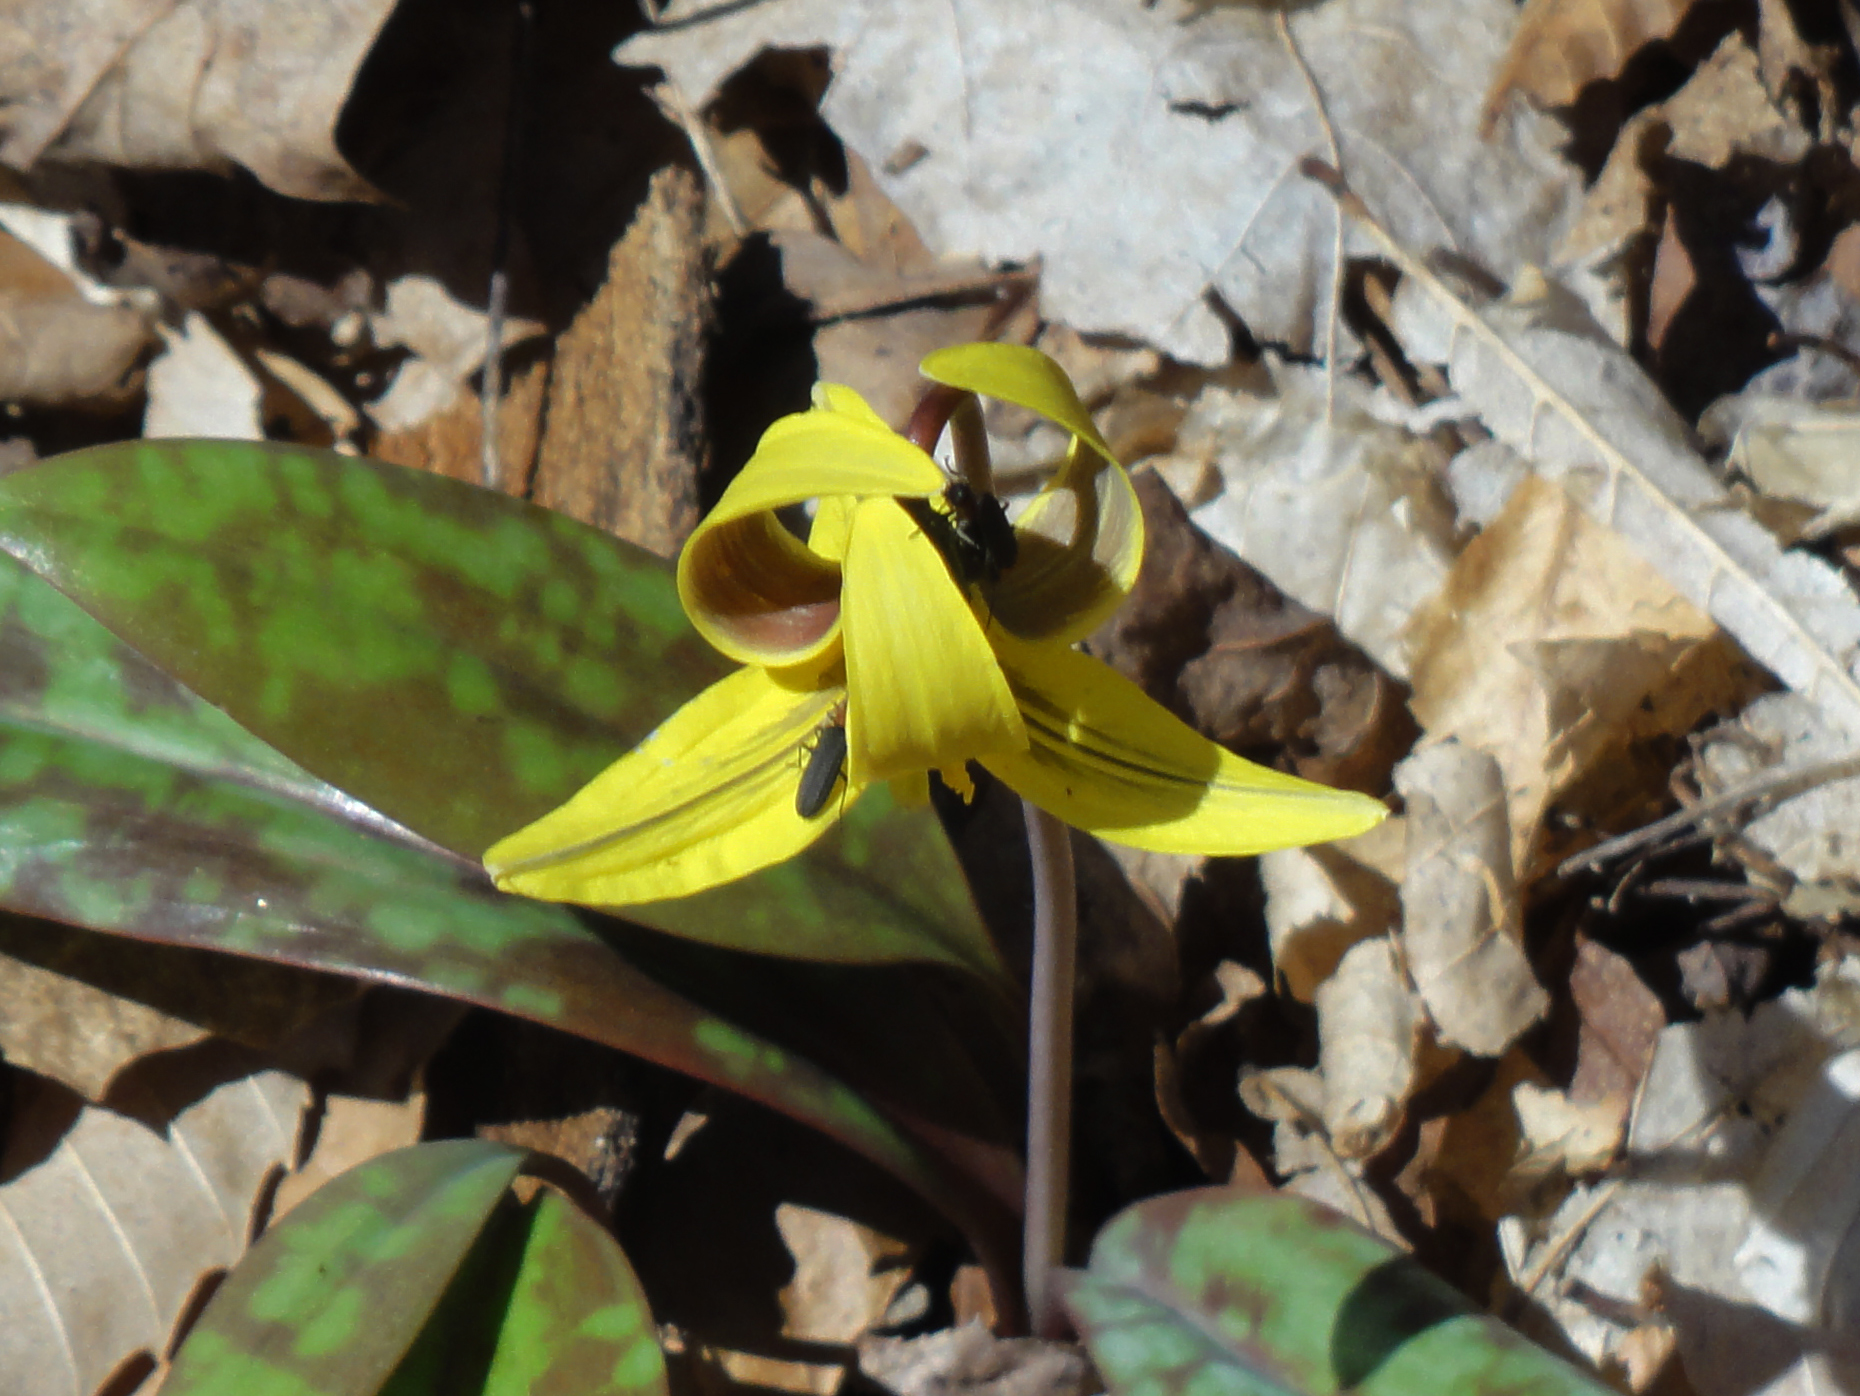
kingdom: Plantae
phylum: Tracheophyta
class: Liliopsida
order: Liliales
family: Liliaceae
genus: Erythronium
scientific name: Erythronium americanum
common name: Yellow adder's-tongue
